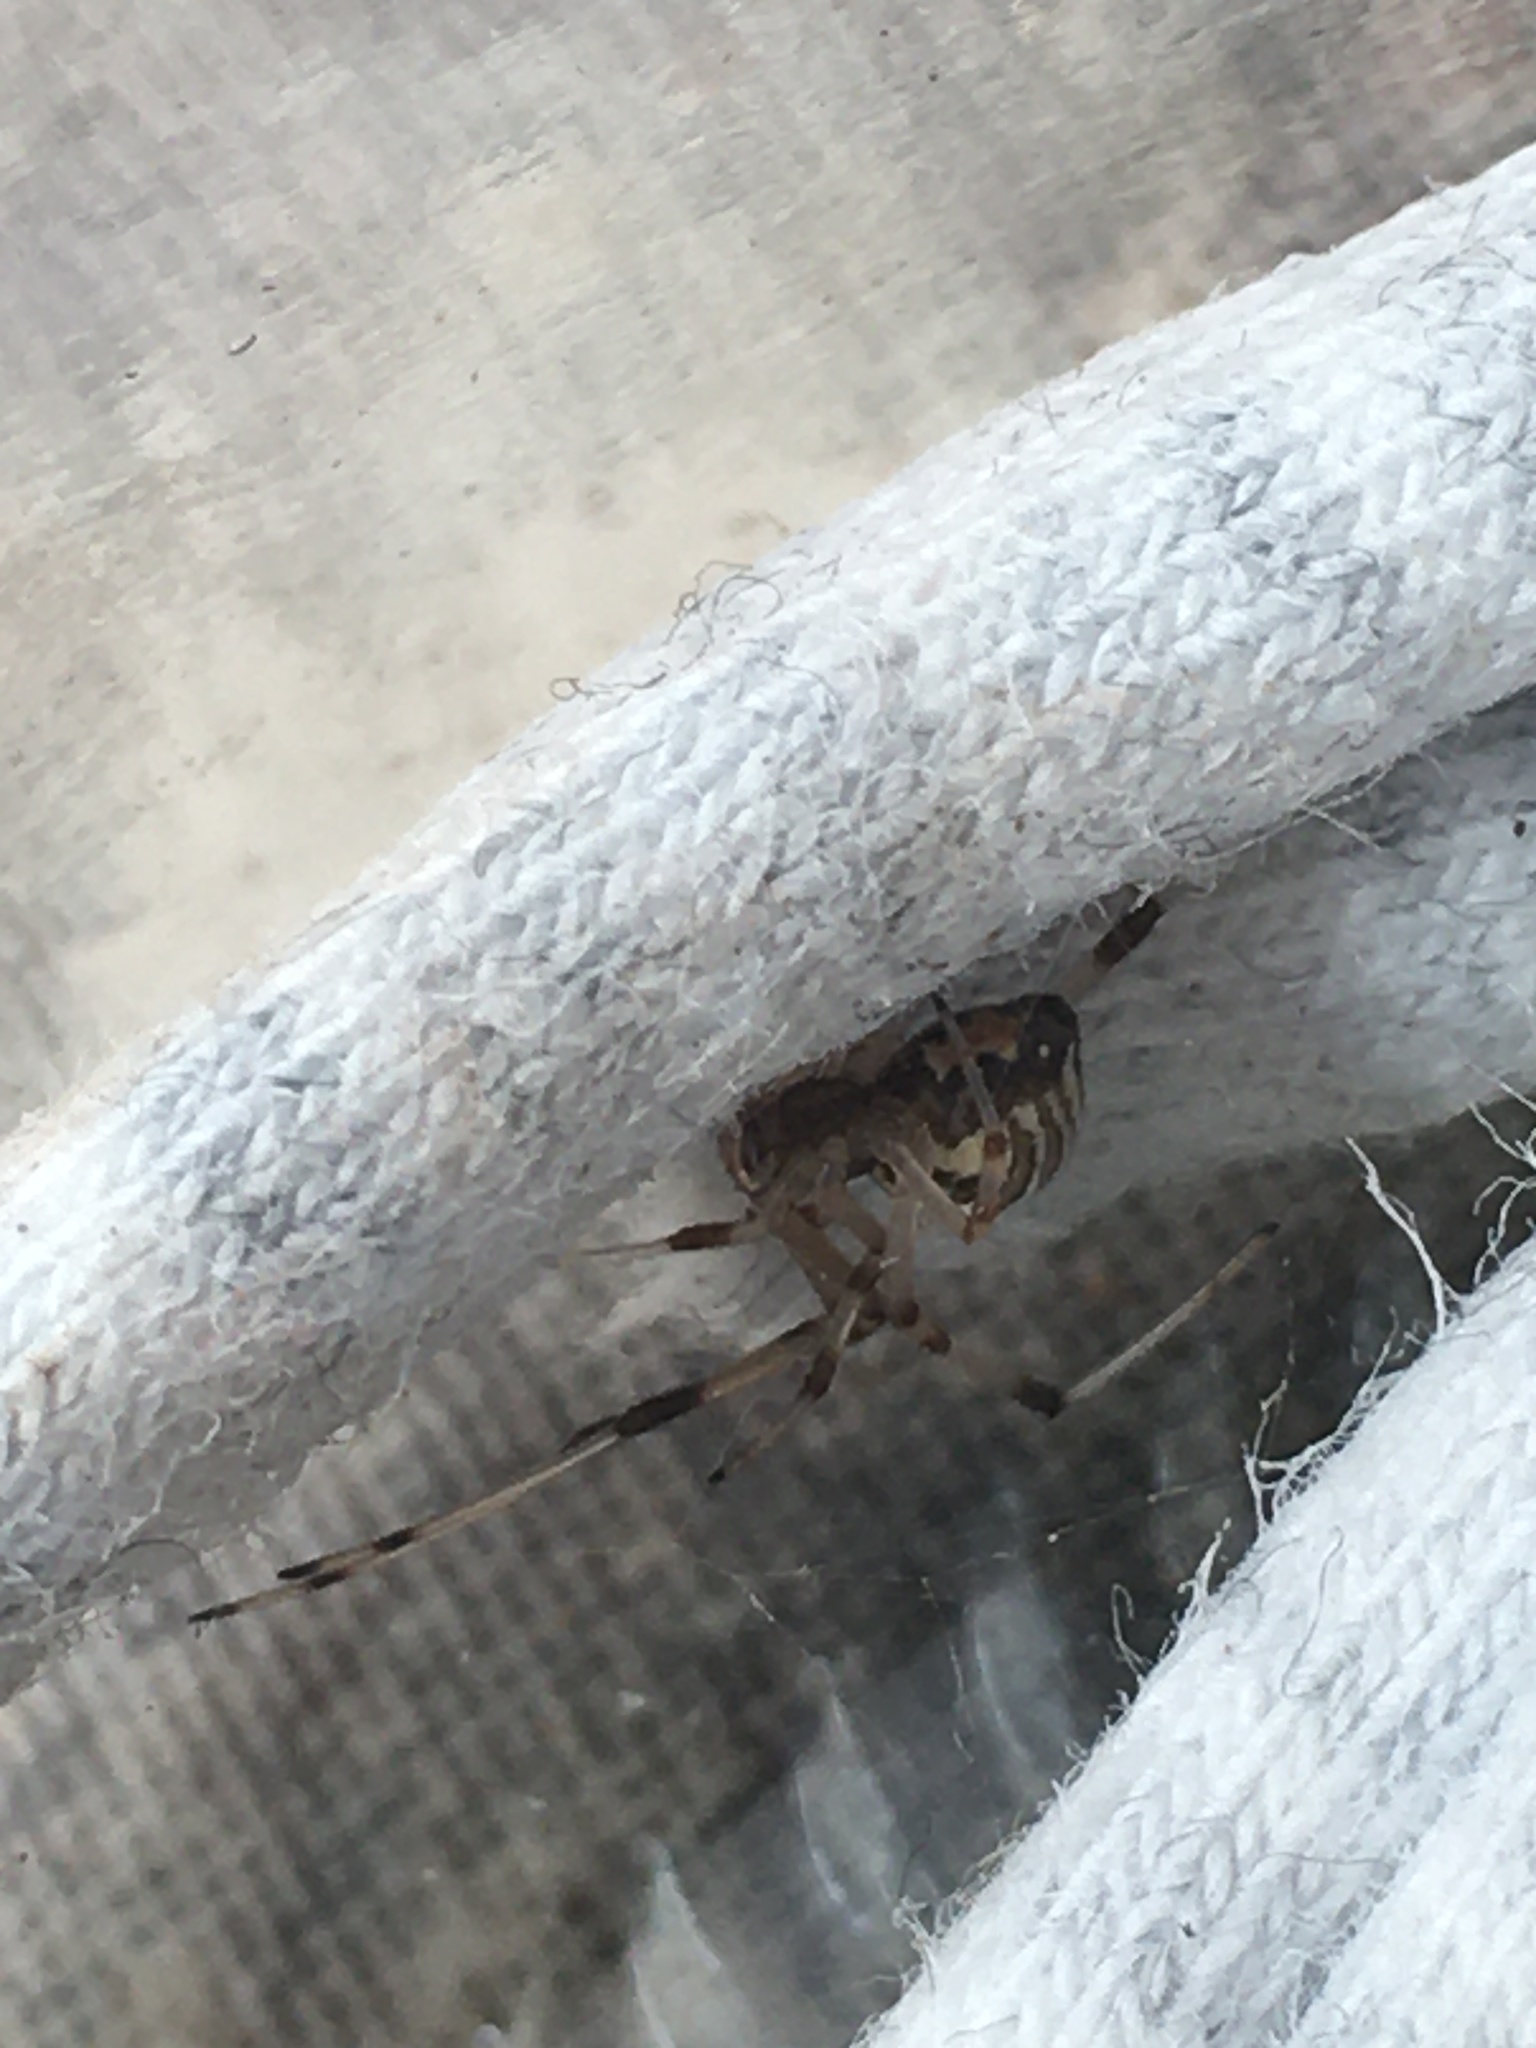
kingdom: Animalia
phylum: Arthropoda
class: Arachnida
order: Araneae
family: Theridiidae
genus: Latrodectus
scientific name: Latrodectus geometricus
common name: Brown widow spider
